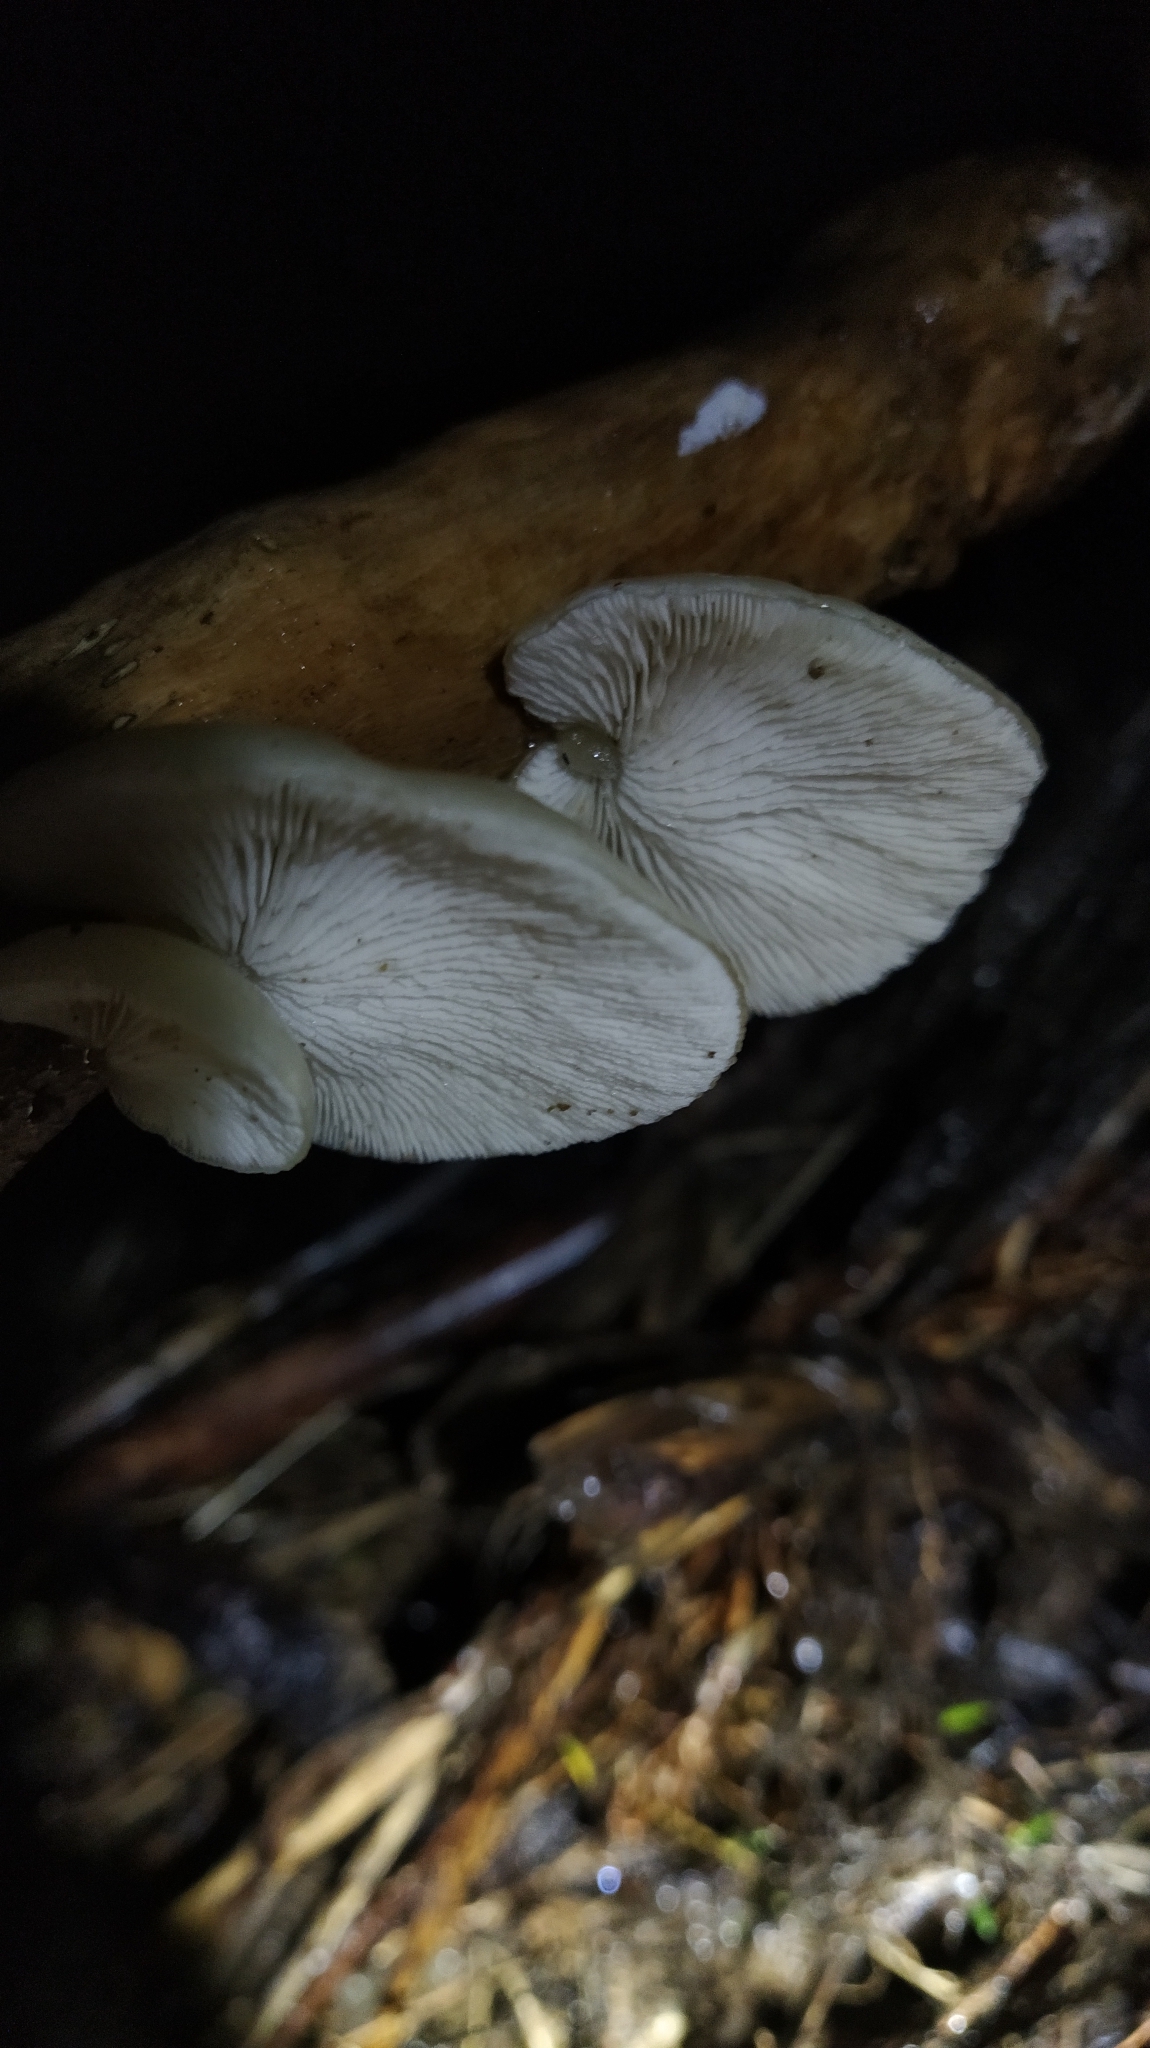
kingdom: Fungi
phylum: Basidiomycota
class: Agaricomycetes
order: Agaricales
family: Tricholomataceae
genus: Conchomyces
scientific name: Conchomyces bursiformis
